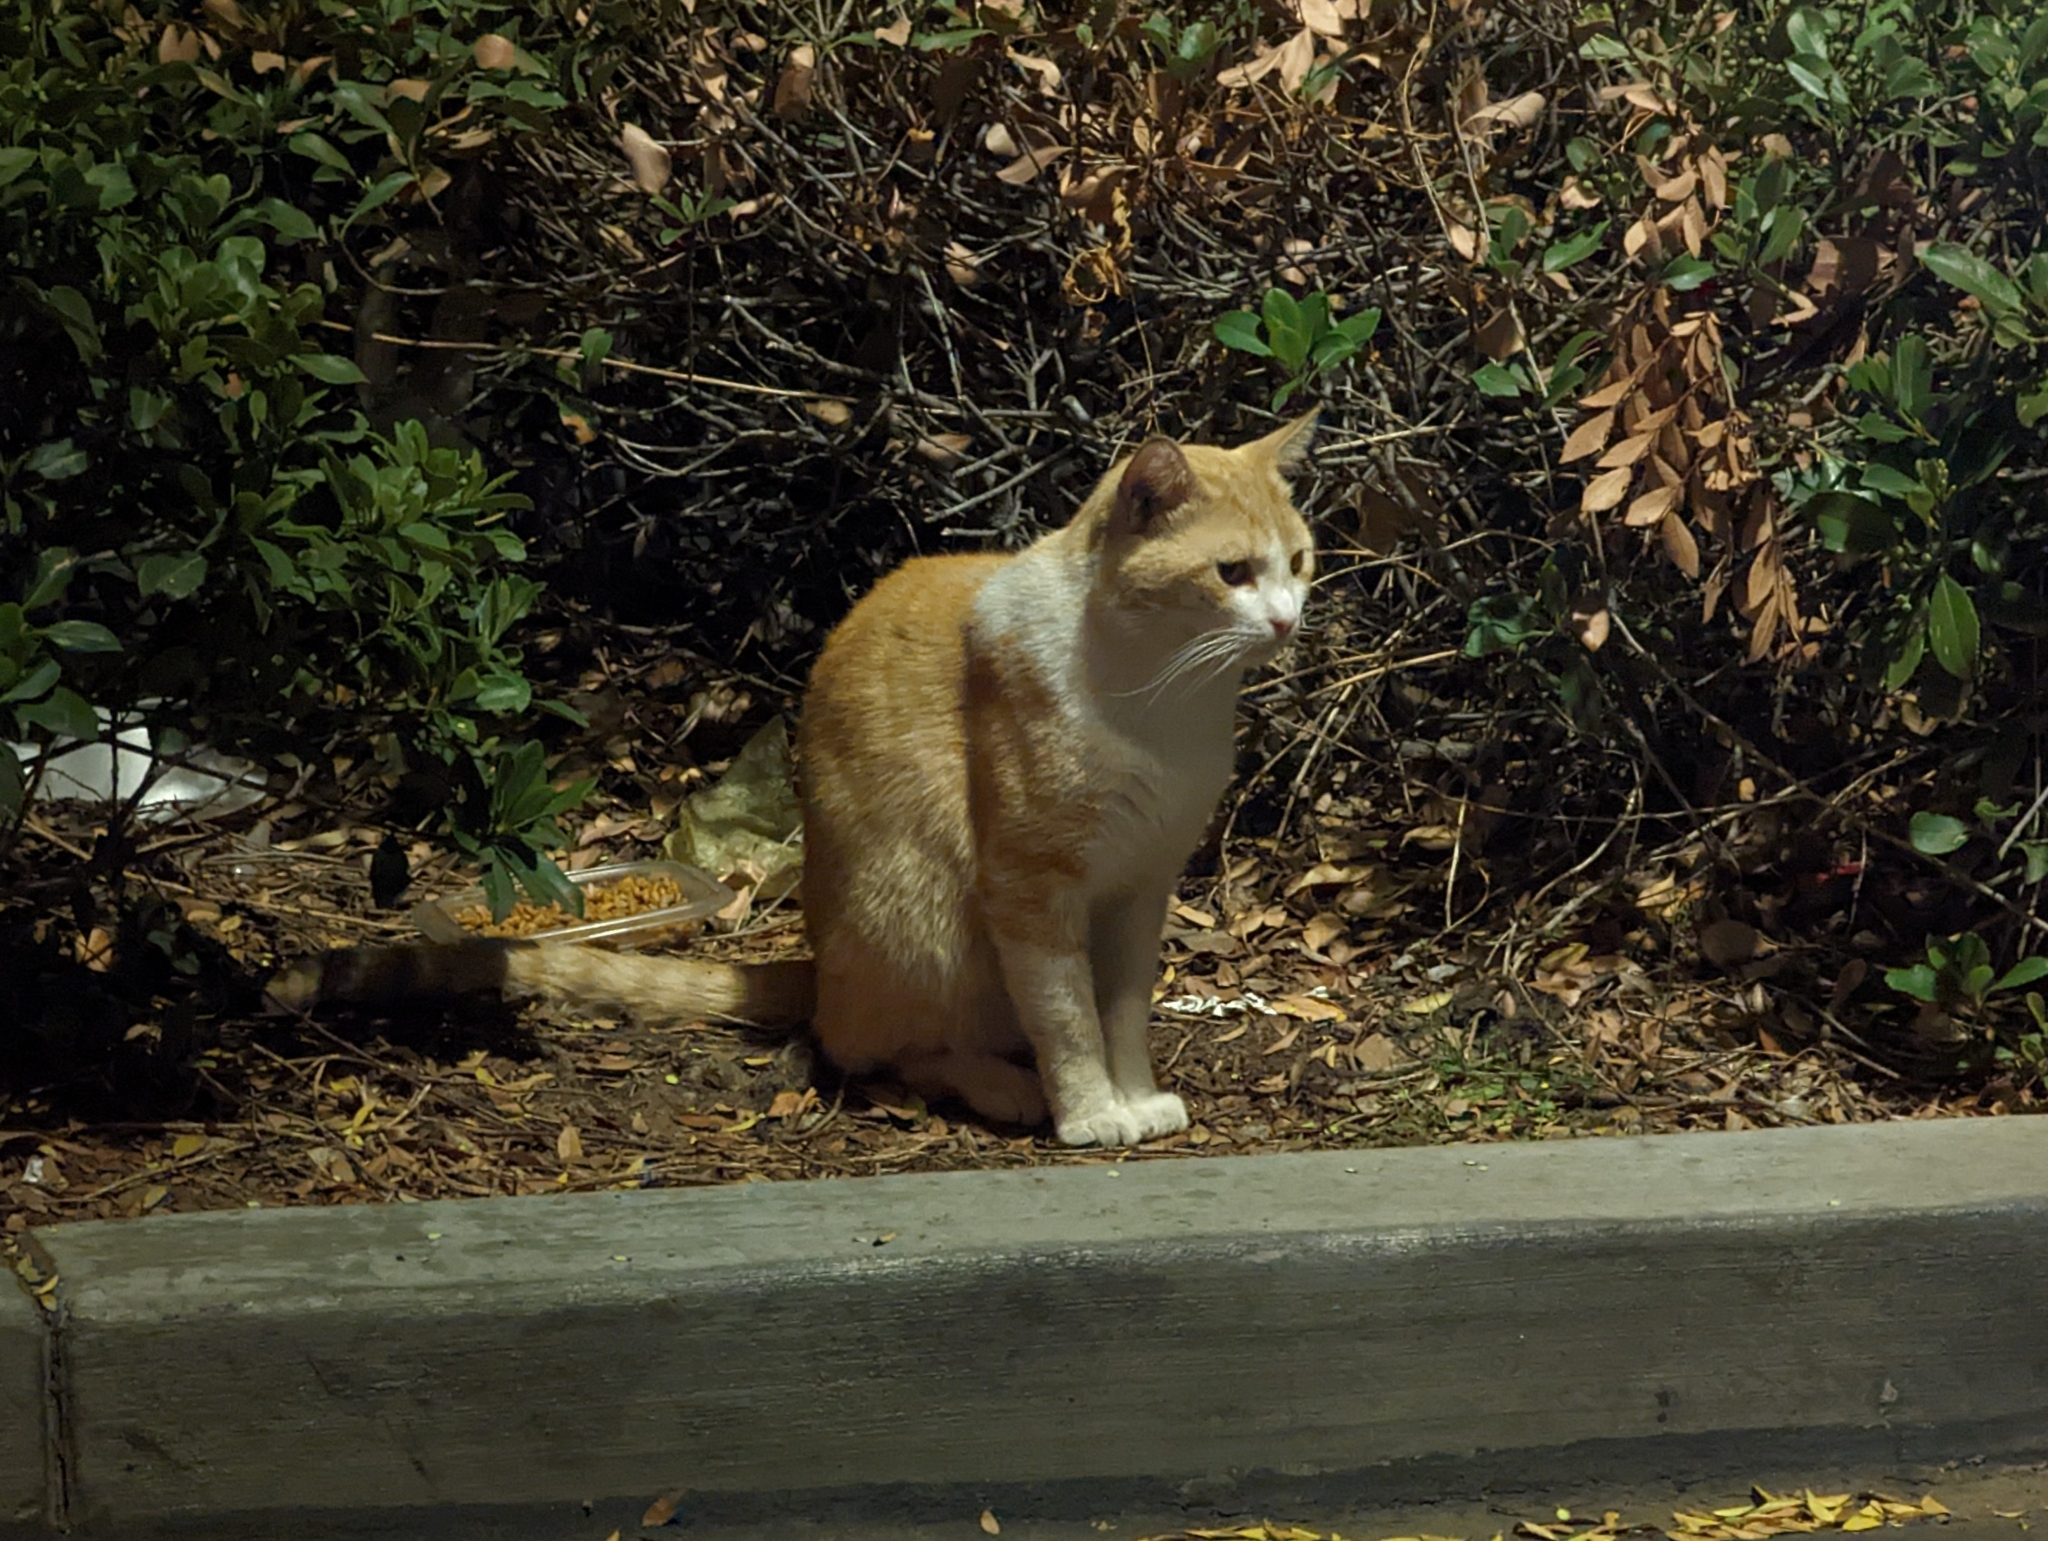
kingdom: Animalia
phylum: Chordata
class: Mammalia
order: Carnivora
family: Felidae
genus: Felis
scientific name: Felis catus
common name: Domestic cat
